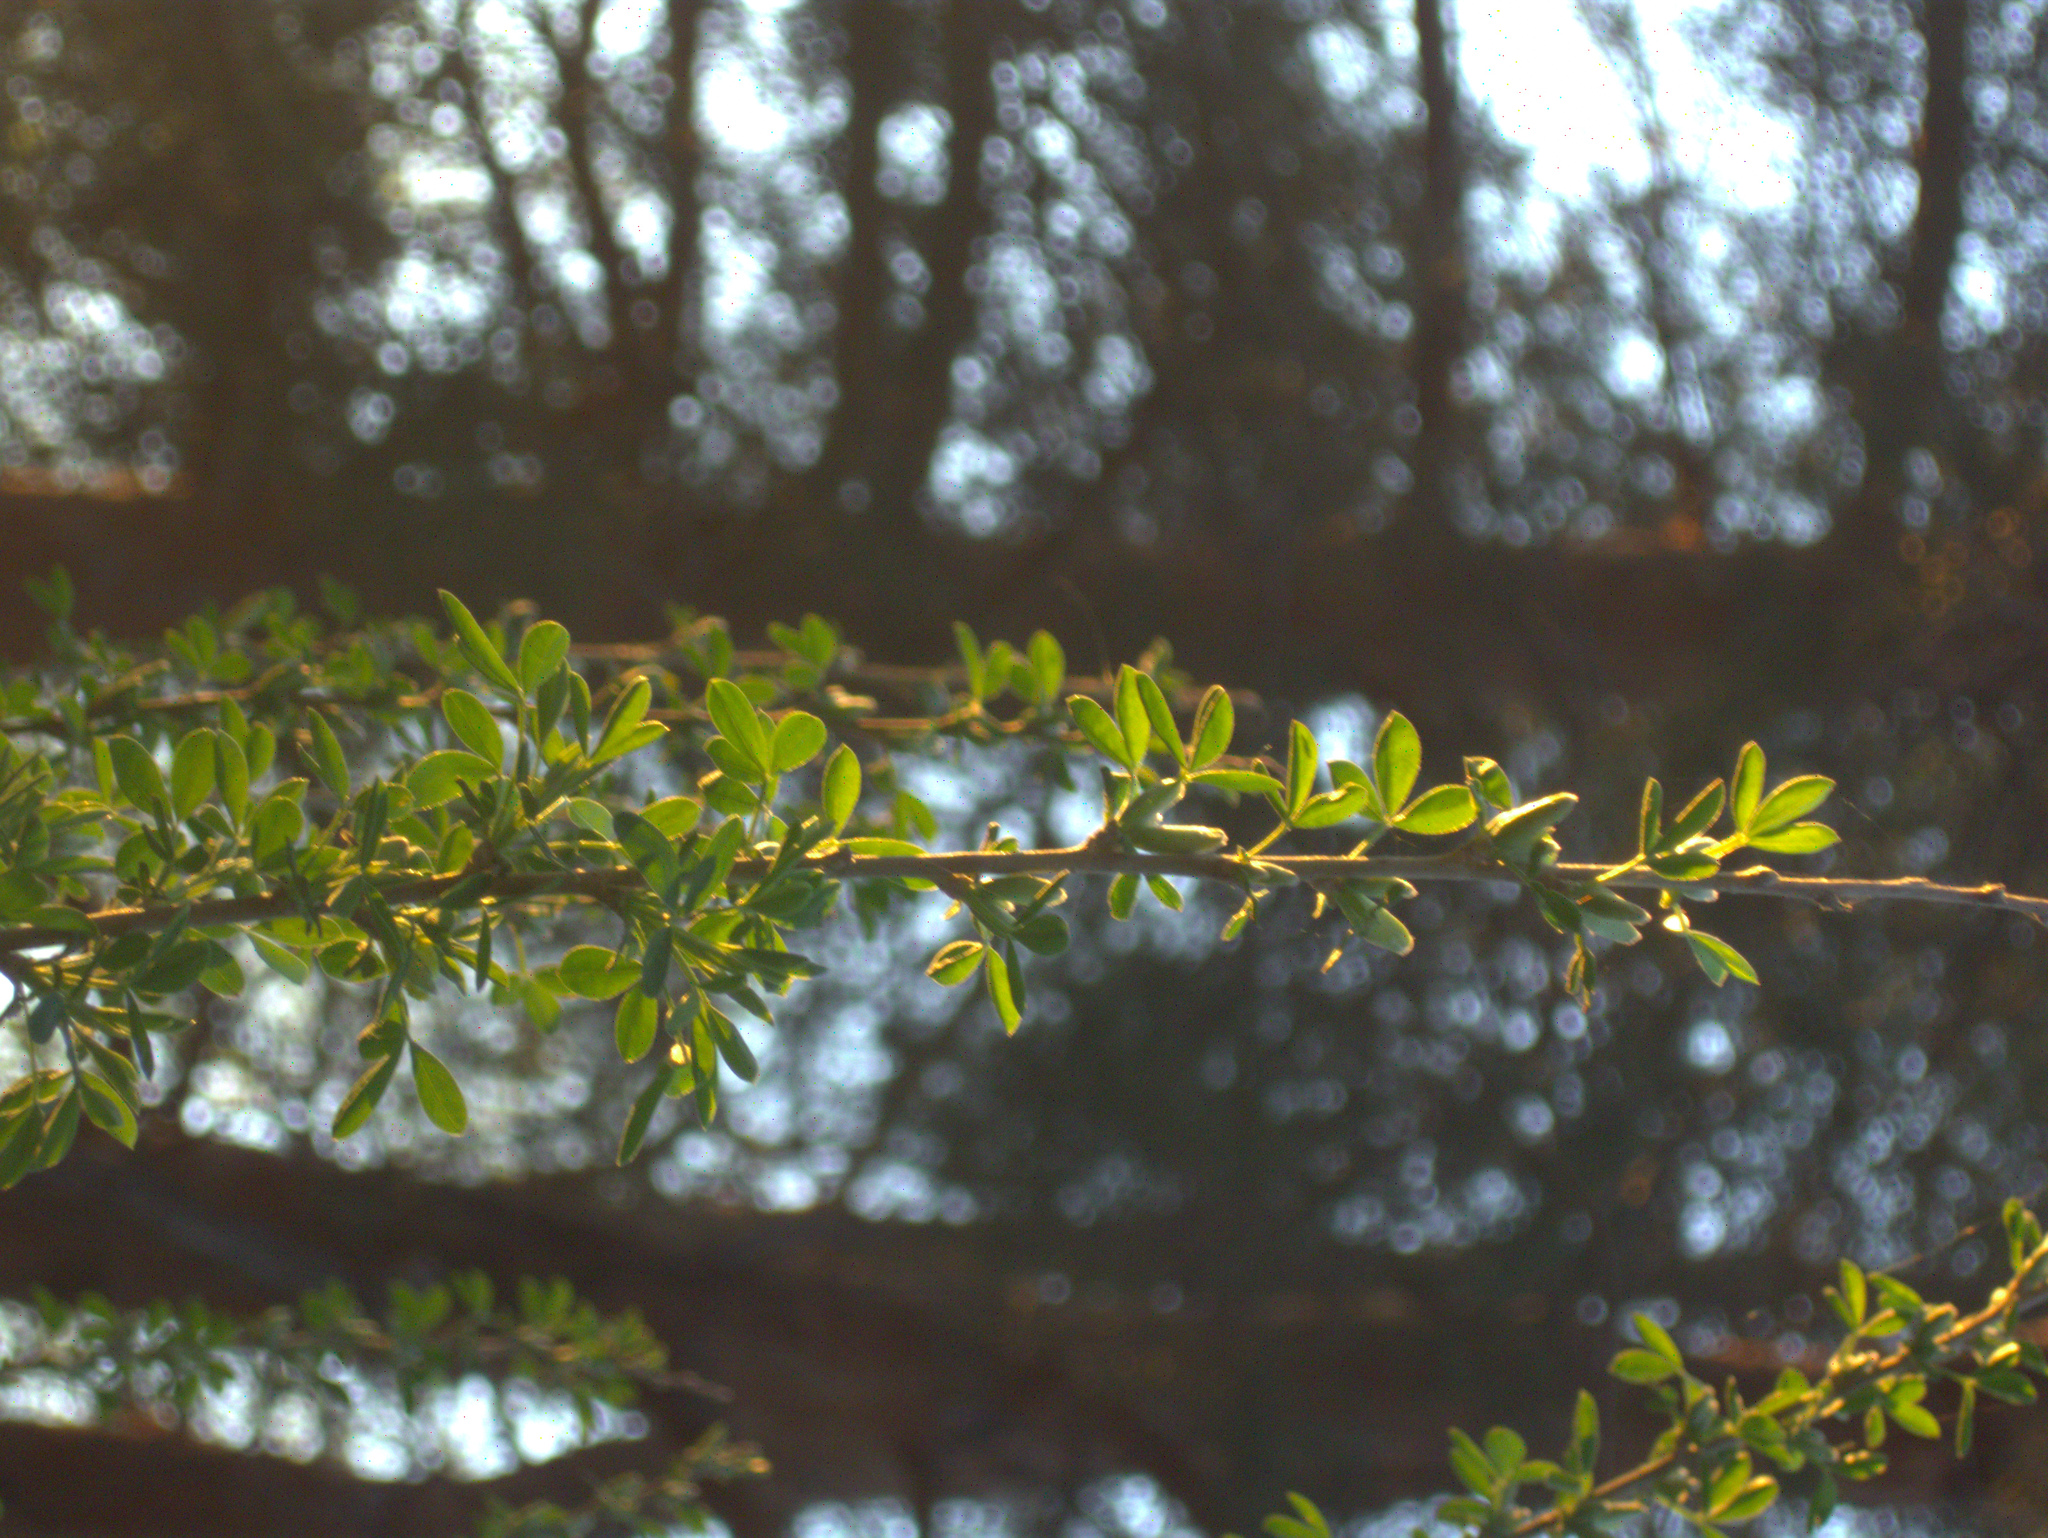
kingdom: Plantae
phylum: Tracheophyta
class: Magnoliopsida
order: Fabales
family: Fabaceae
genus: Chamaecytisus
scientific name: Chamaecytisus ruthenicus
